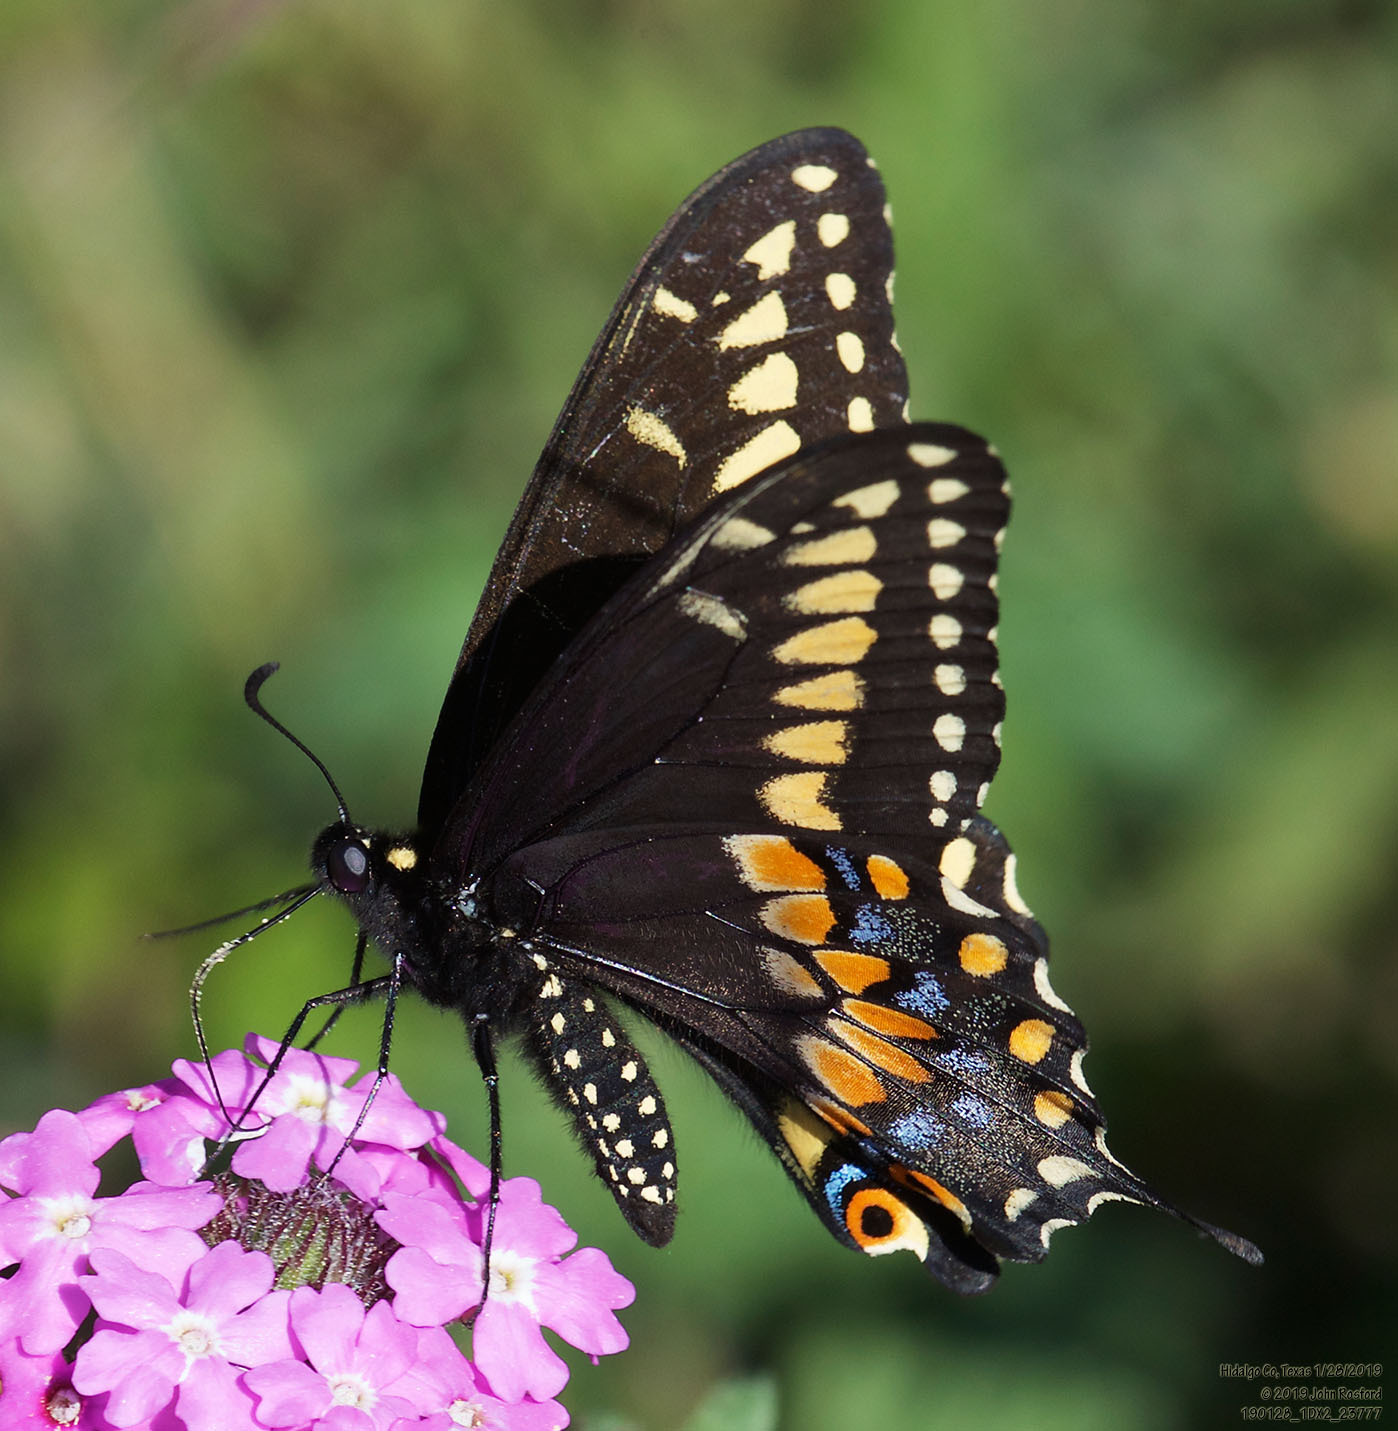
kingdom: Animalia
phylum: Arthropoda
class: Insecta
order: Lepidoptera
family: Papilionidae
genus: Papilio
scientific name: Papilio polyxenes
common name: Black swallowtail
